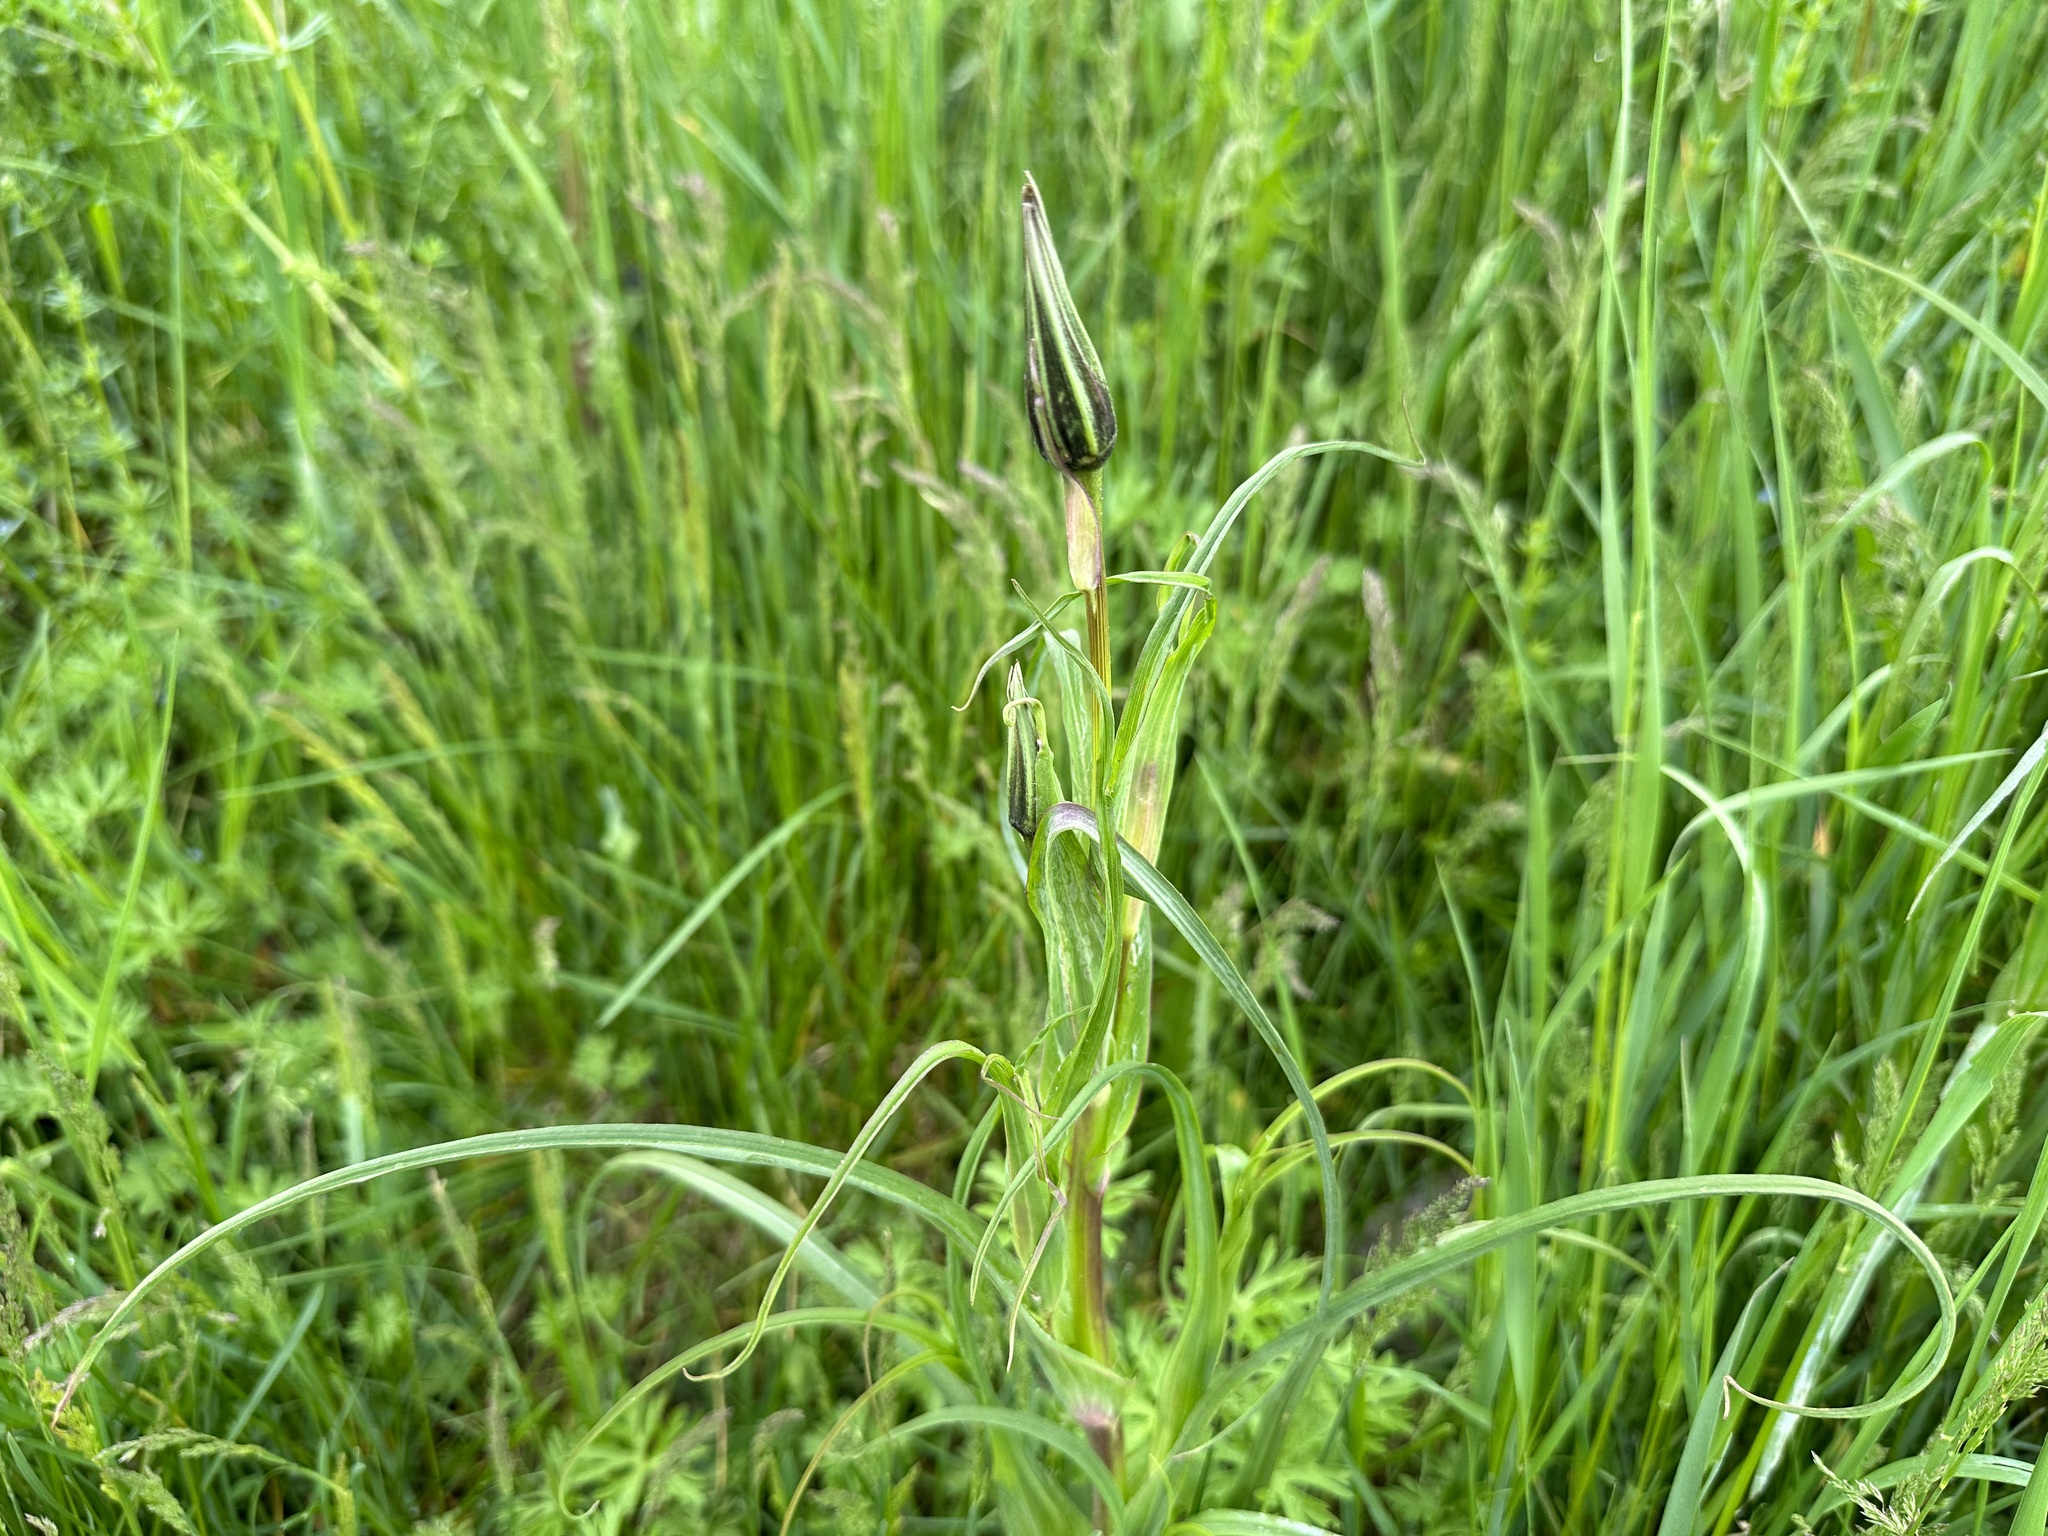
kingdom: Plantae
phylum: Tracheophyta
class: Magnoliopsida
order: Asterales
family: Asteraceae
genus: Tragopogon
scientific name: Tragopogon pratensis
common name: Goat's-beard
